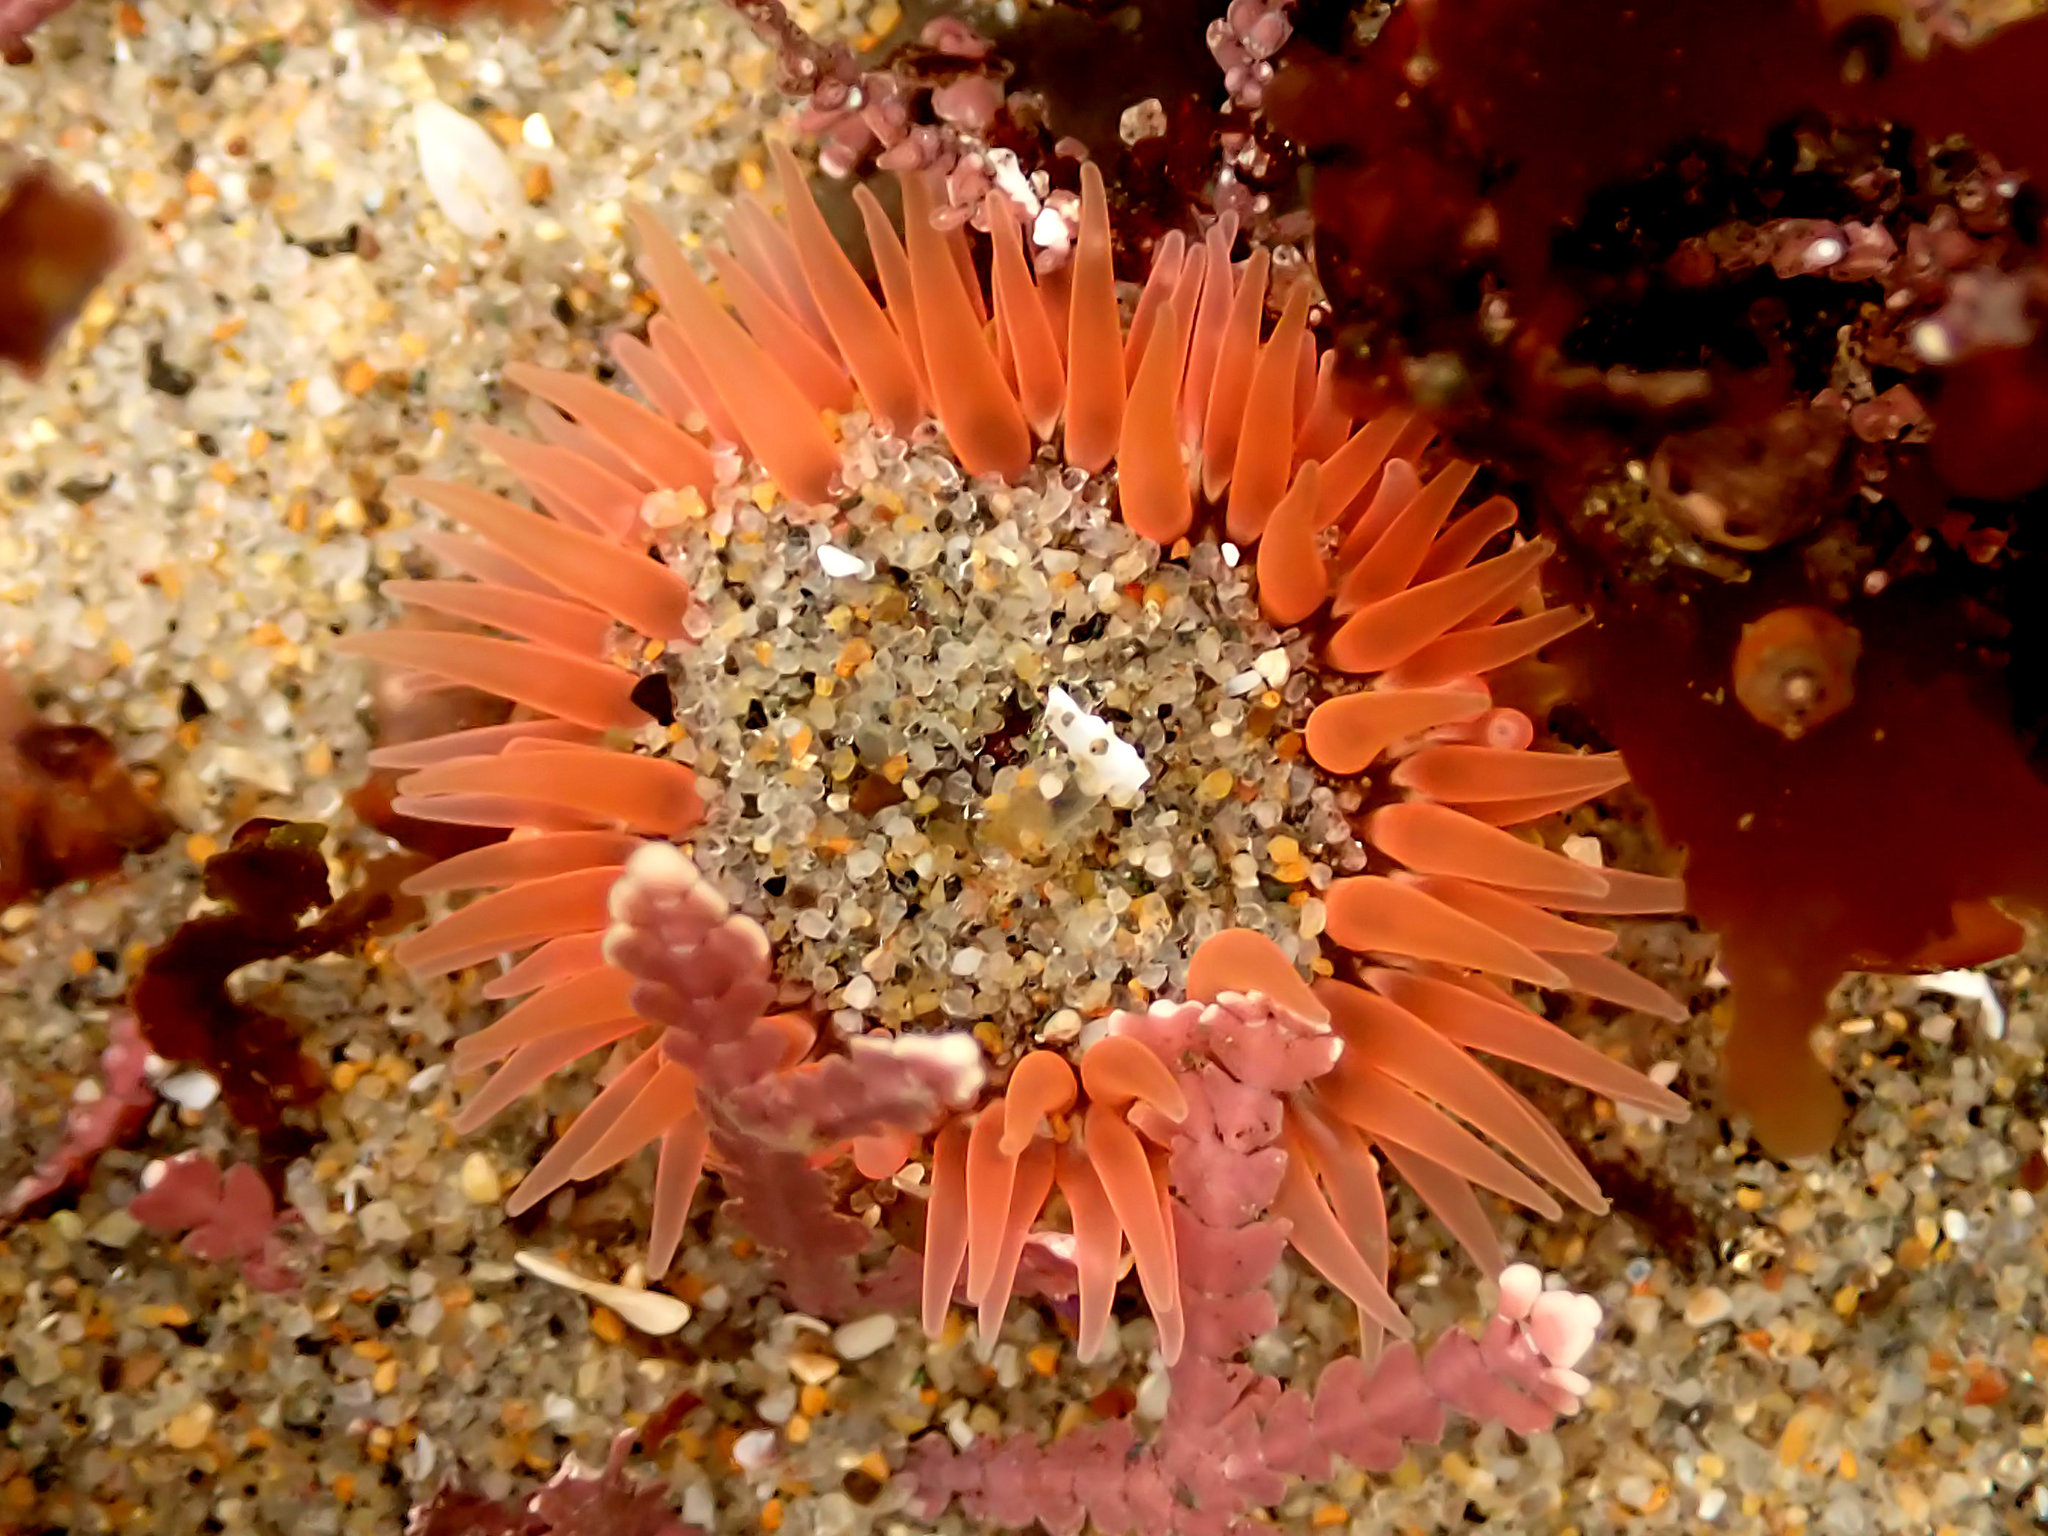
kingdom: Animalia
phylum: Cnidaria
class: Anthozoa
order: Actiniaria
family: Actiniidae
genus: Anthopleura
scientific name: Anthopleura artemisia
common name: Buried sea anemone
